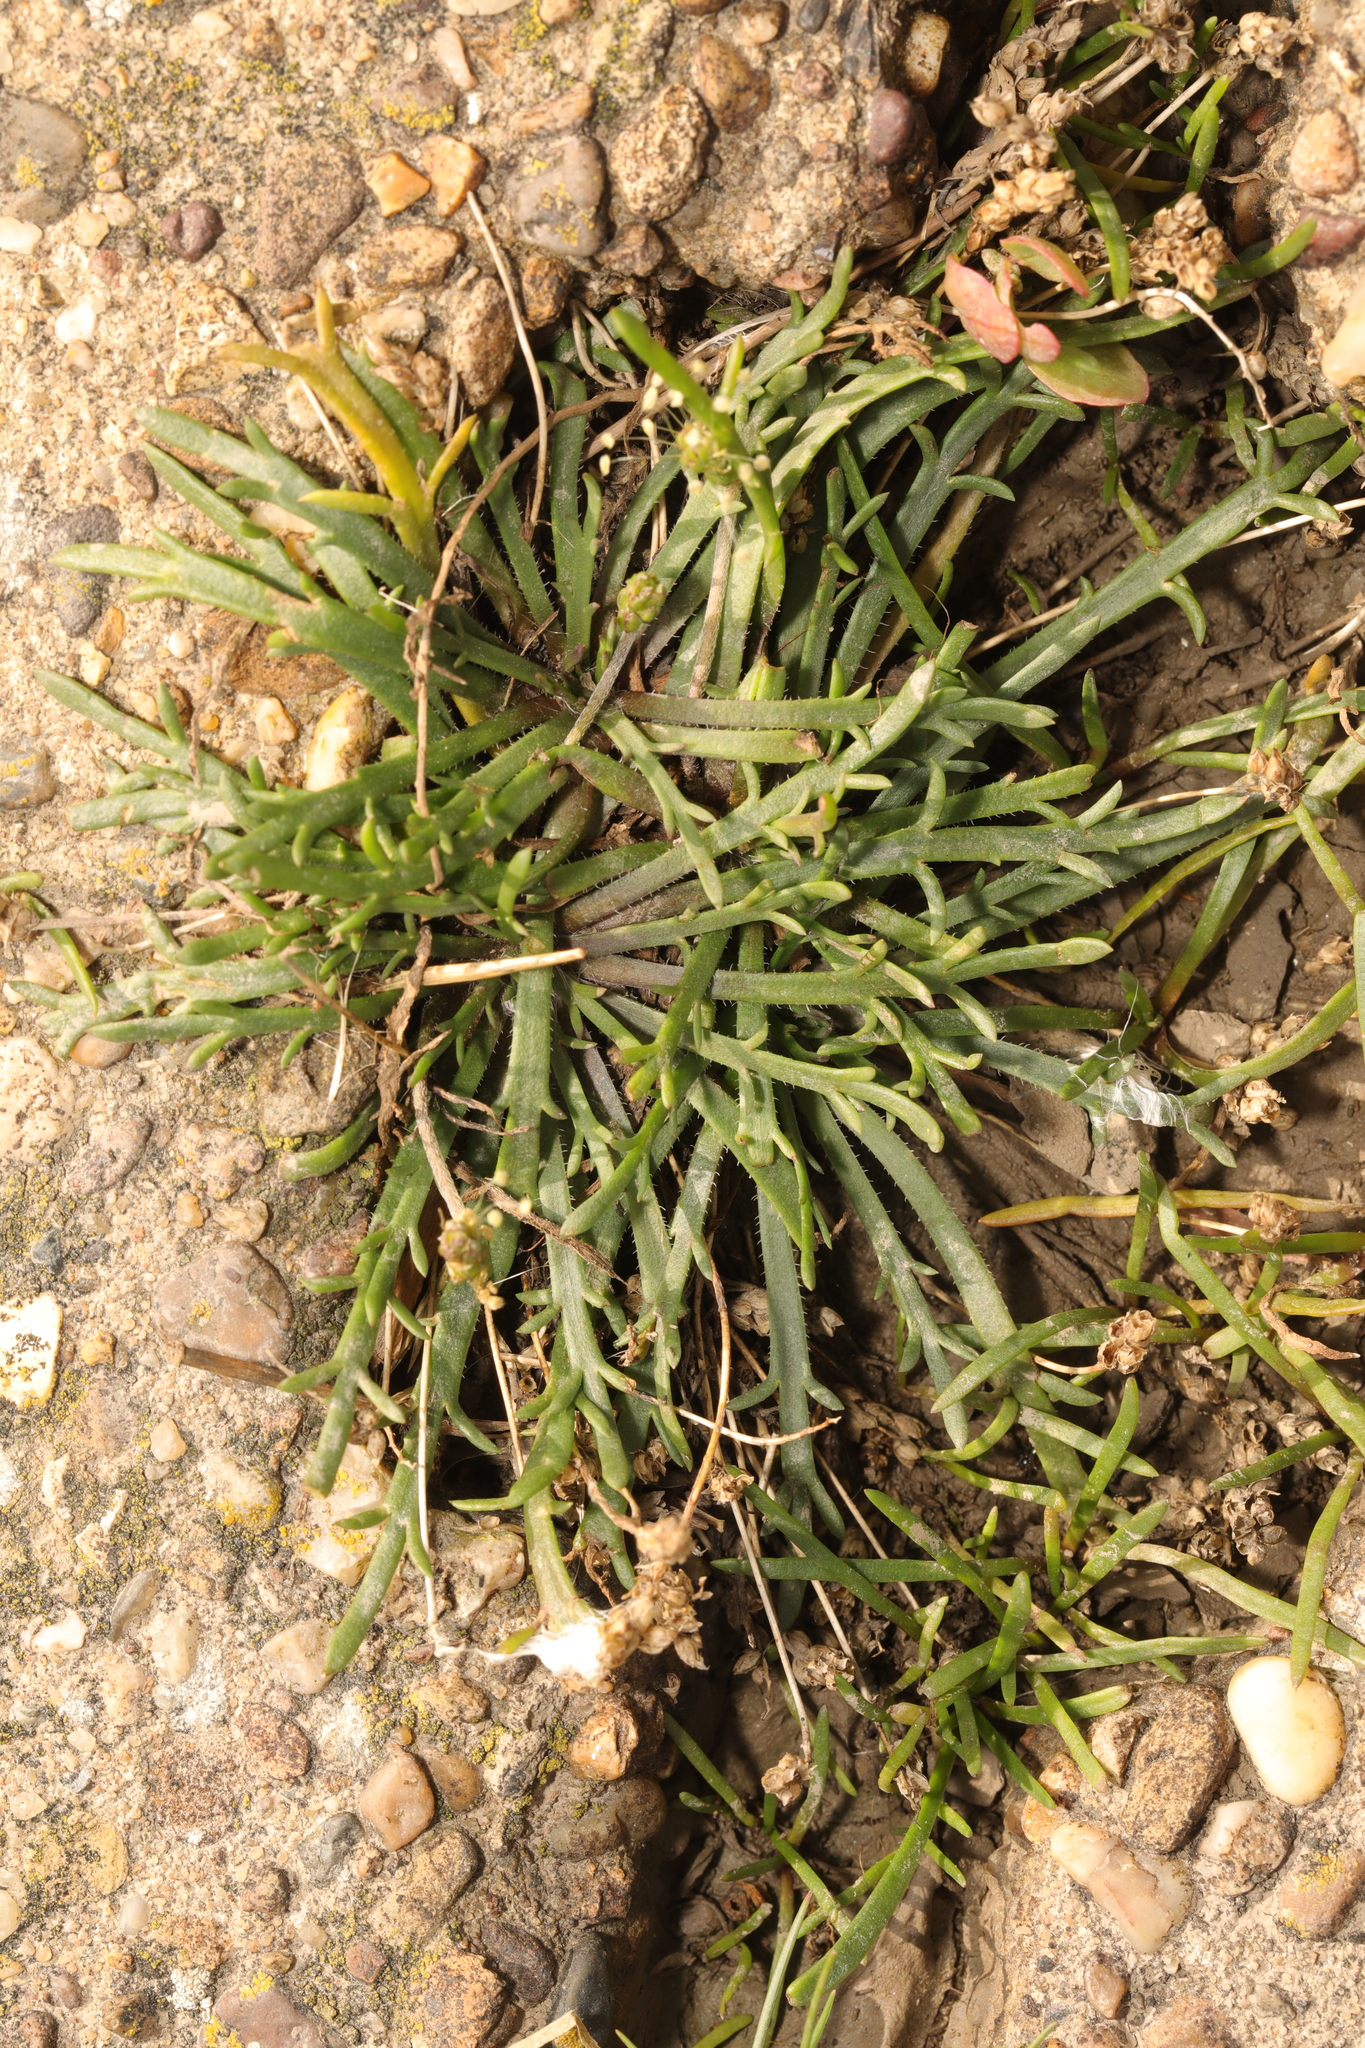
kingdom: Plantae
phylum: Tracheophyta
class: Magnoliopsida
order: Lamiales
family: Plantaginaceae
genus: Plantago
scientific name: Plantago coronopus
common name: Buck's-horn plantain
